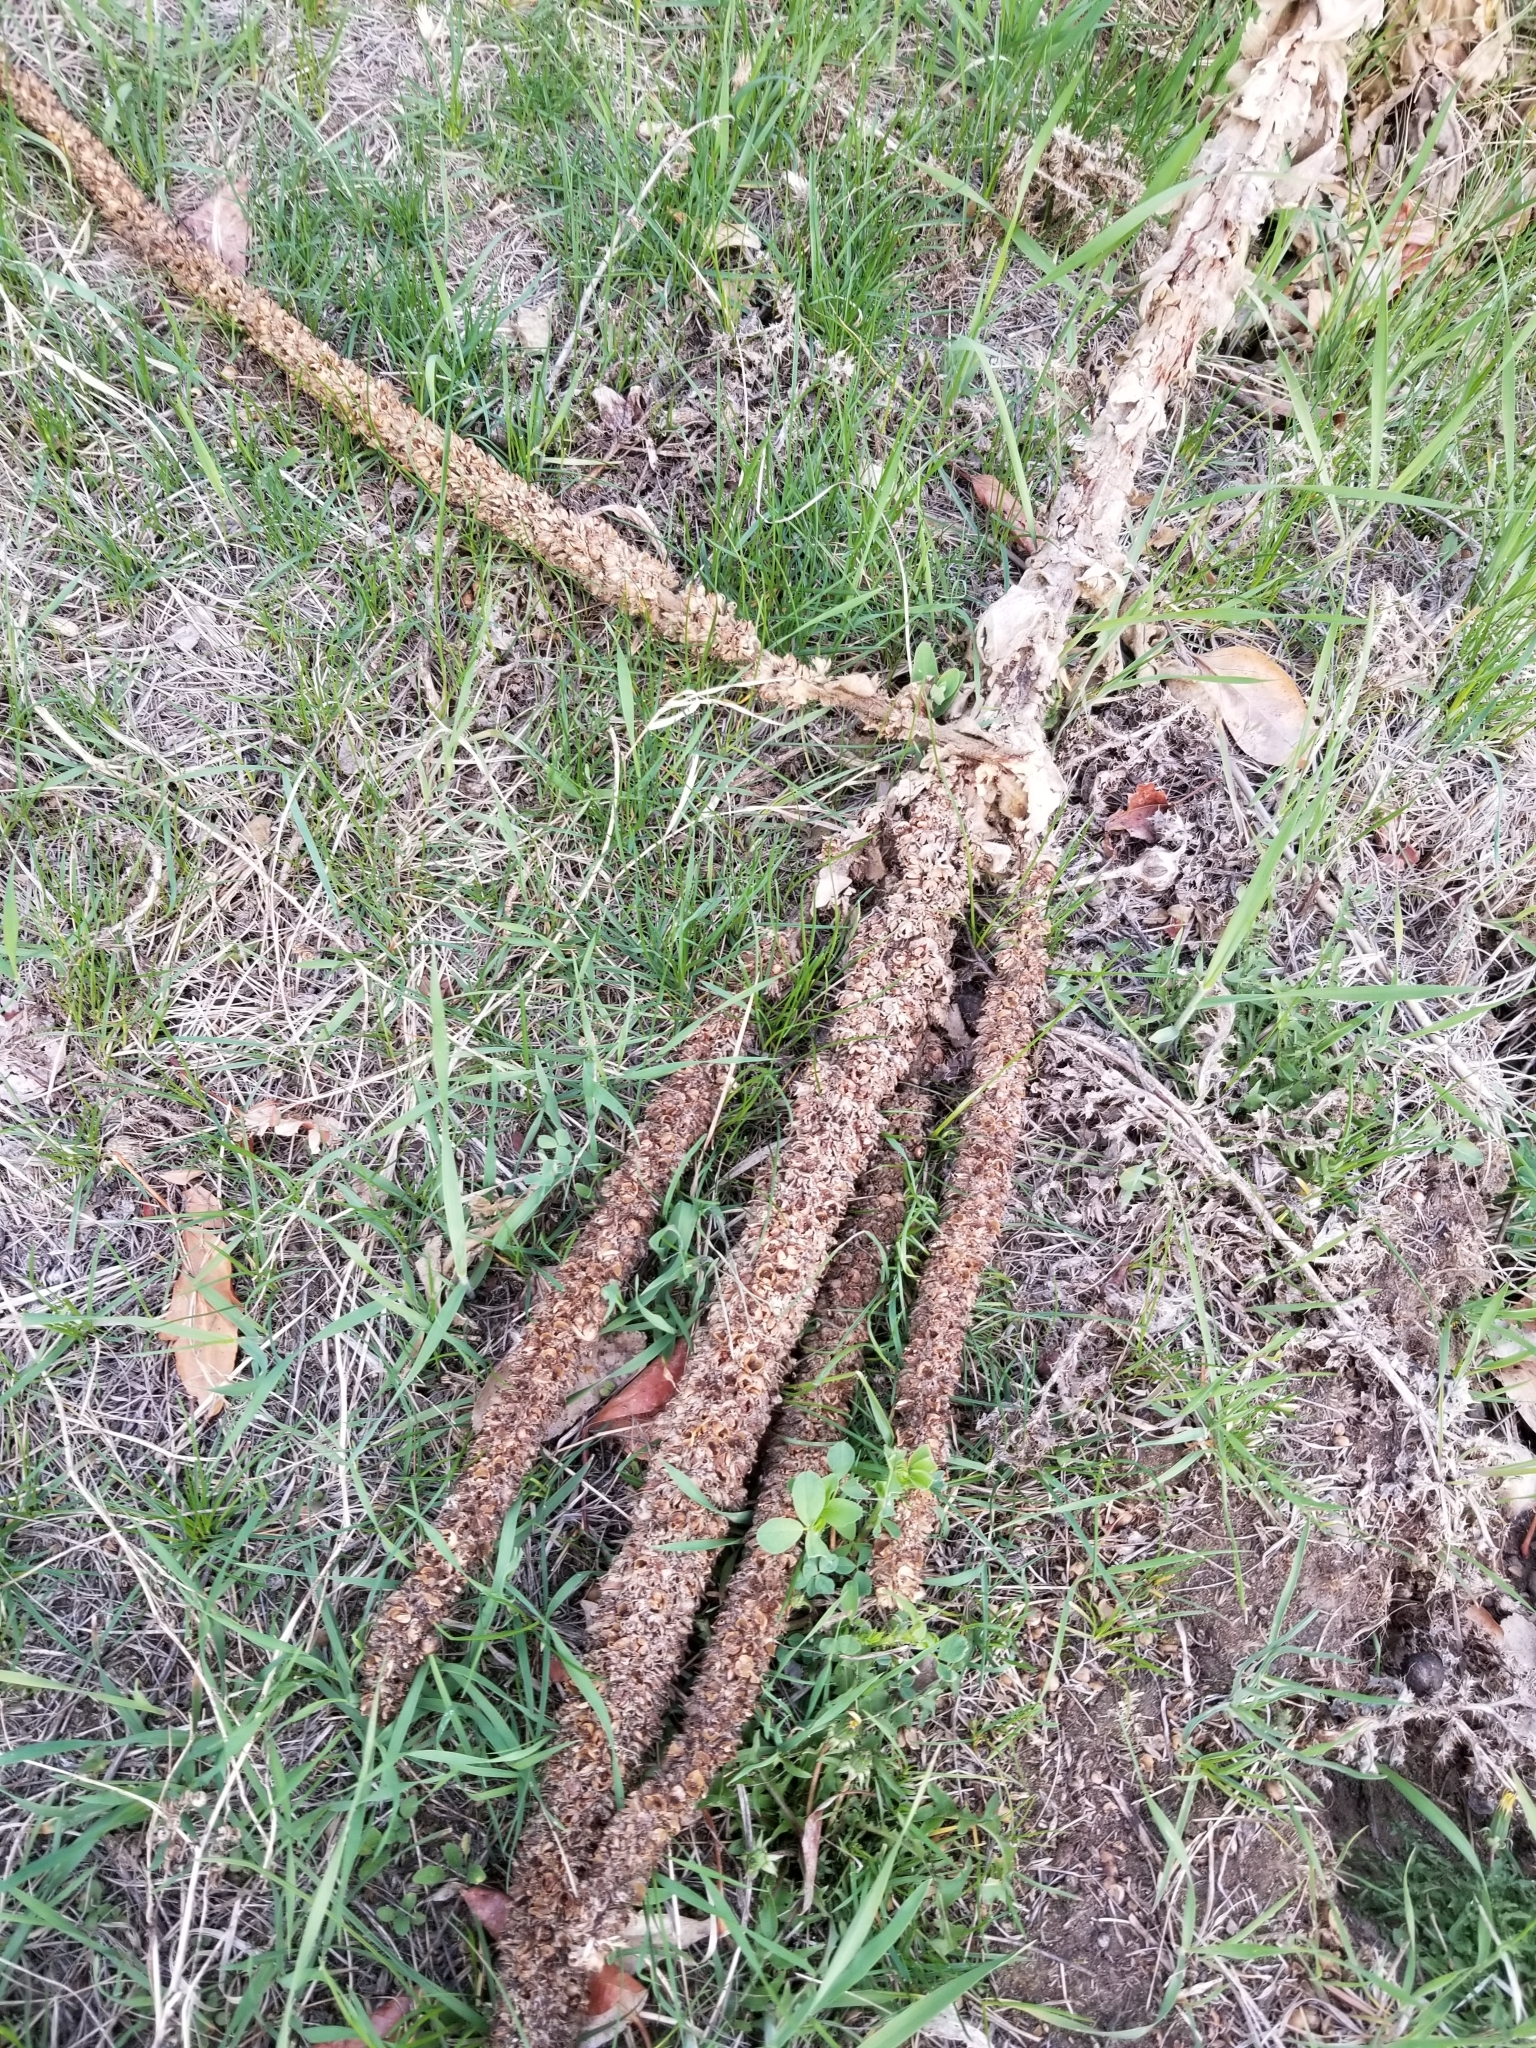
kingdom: Plantae
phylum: Tracheophyta
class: Magnoliopsida
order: Lamiales
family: Scrophulariaceae
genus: Verbascum
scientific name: Verbascum thapsus
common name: Common mullein
